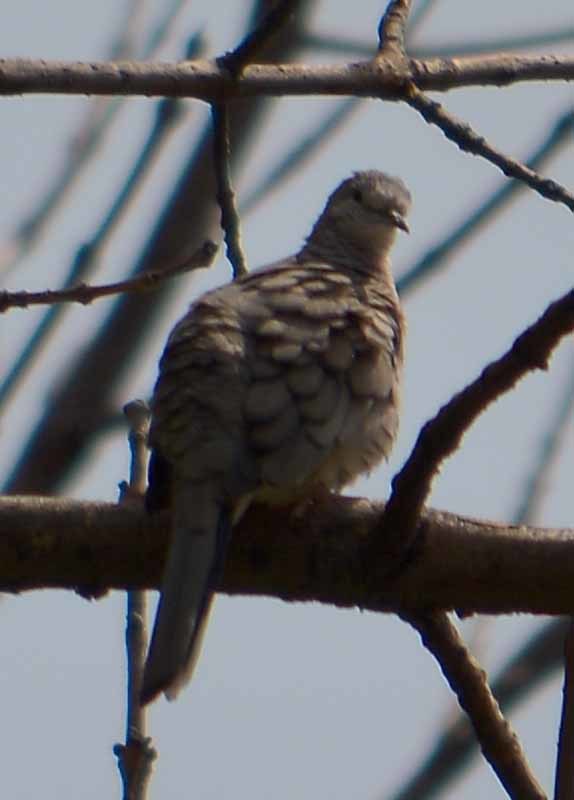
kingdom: Animalia
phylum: Chordata
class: Aves
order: Columbiformes
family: Columbidae
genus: Columbina
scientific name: Columbina inca
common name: Inca dove
